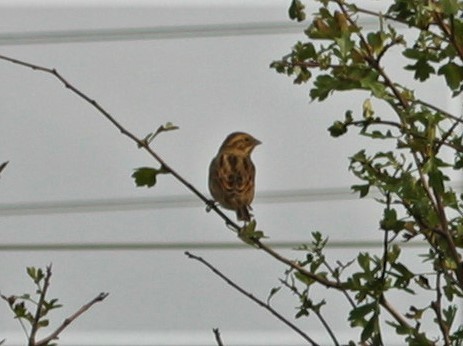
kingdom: Animalia
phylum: Chordata
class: Aves
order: Passeriformes
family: Emberizidae
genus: Emberiza
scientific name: Emberiza schoeniclus
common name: Reed bunting
